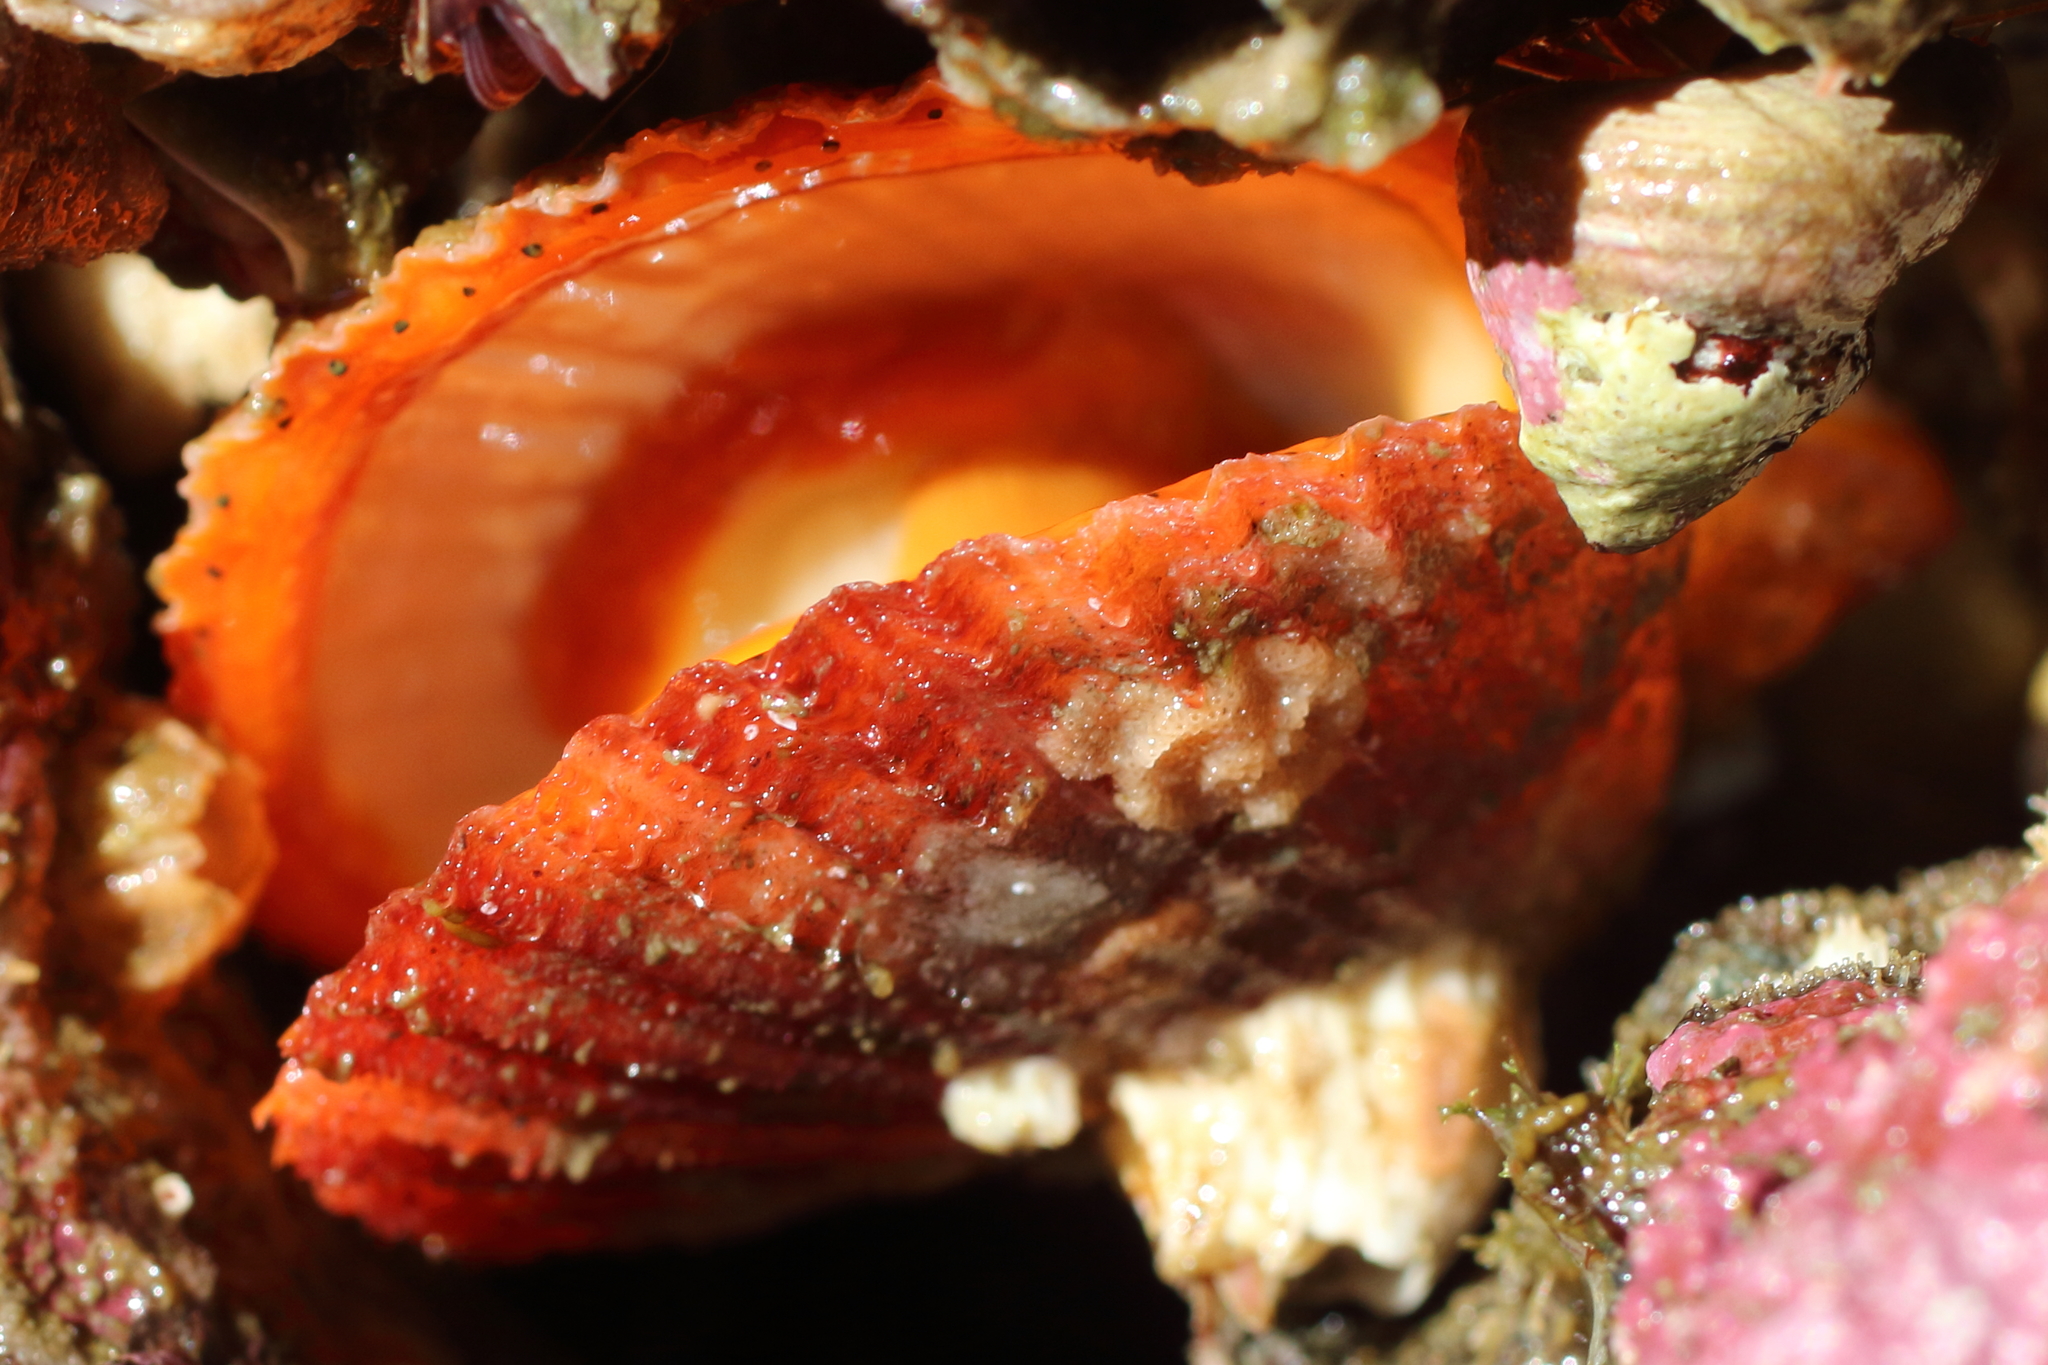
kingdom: Animalia
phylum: Mollusca
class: Bivalvia
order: Pectinida
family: Pectinidae
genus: Chlamys
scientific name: Chlamys hastata
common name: Spear scallop
